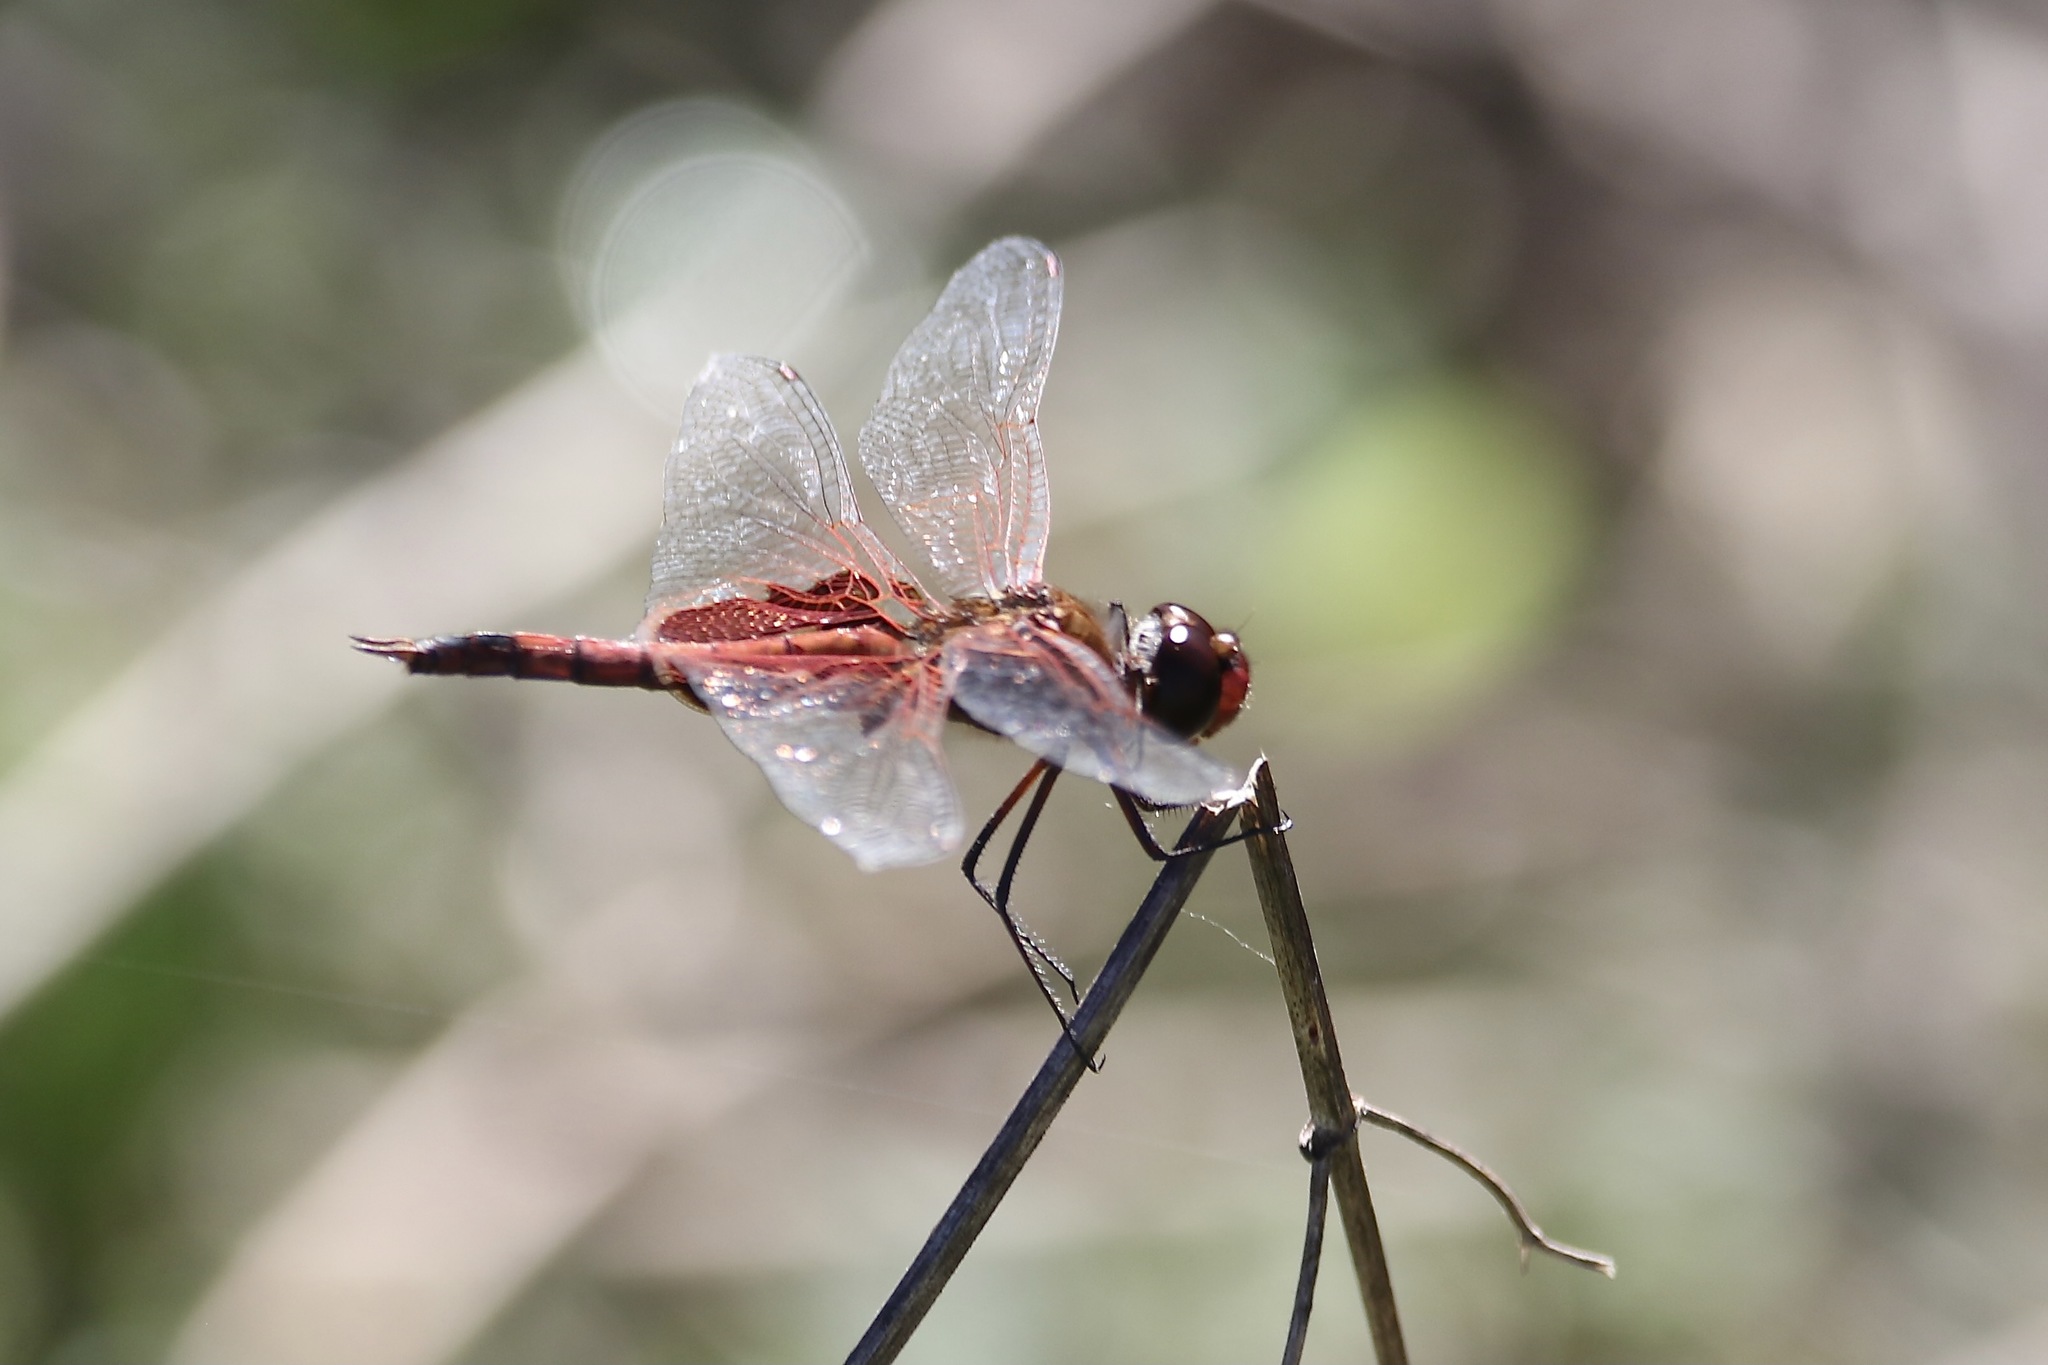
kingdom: Animalia
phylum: Arthropoda
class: Insecta
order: Odonata
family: Libellulidae
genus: Tramea
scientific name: Tramea onusta
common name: Red saddlebags
